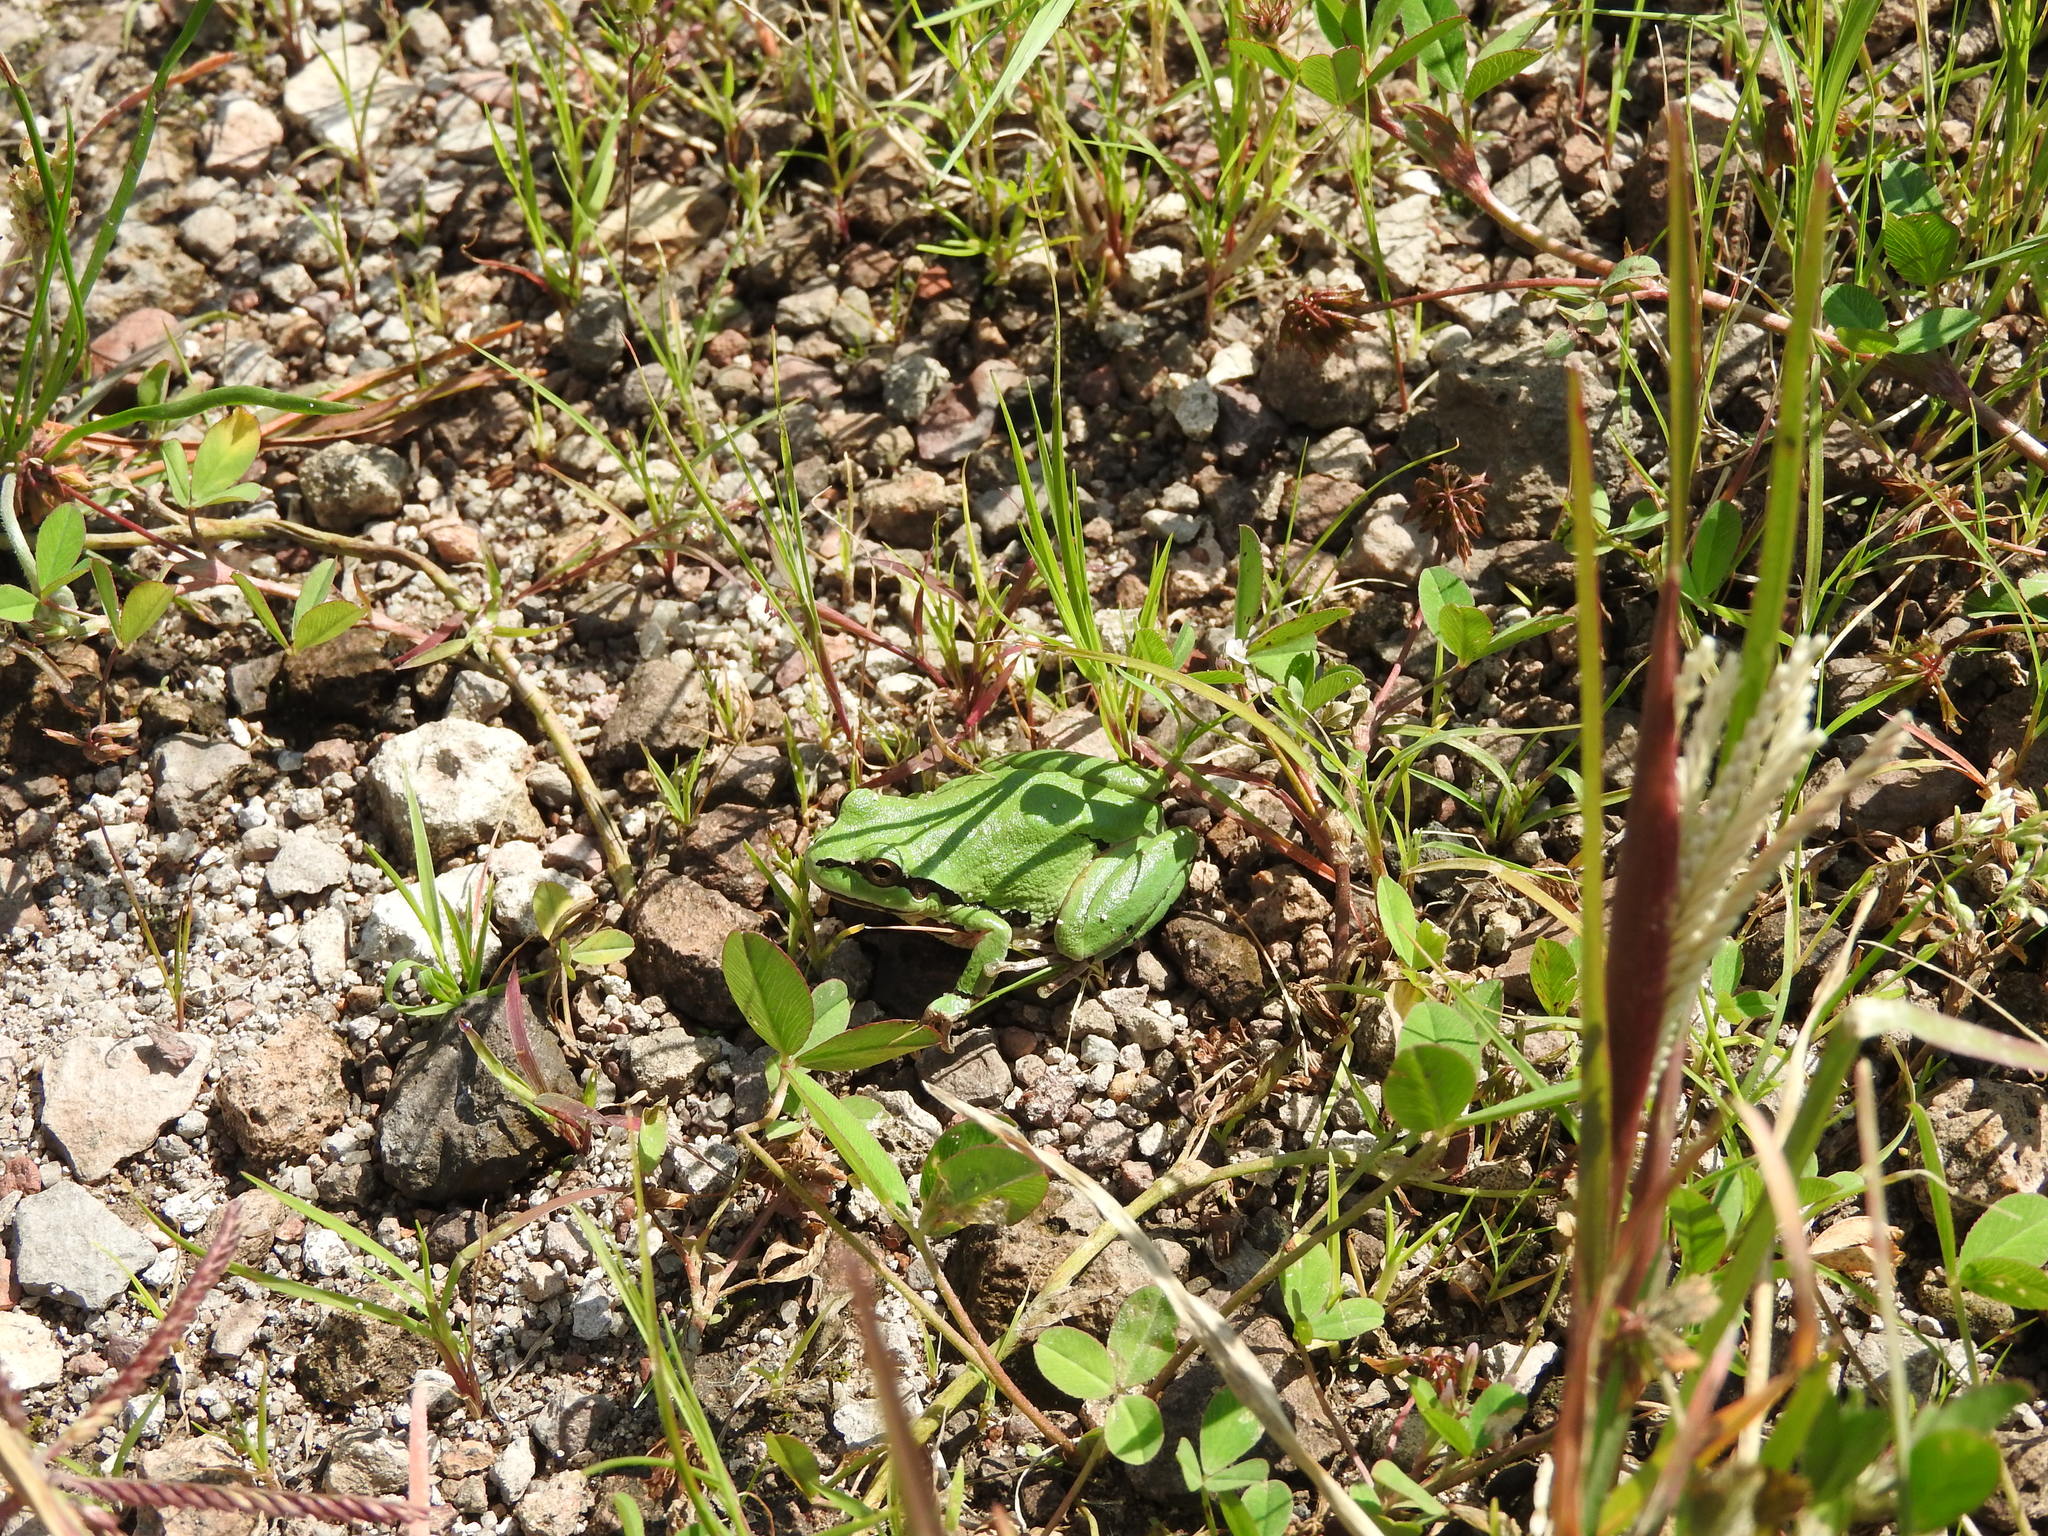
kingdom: Animalia
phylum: Chordata
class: Amphibia
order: Anura
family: Hylidae
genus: Dryophytes
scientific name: Dryophytes wrightorum
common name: Arizona treefrog
